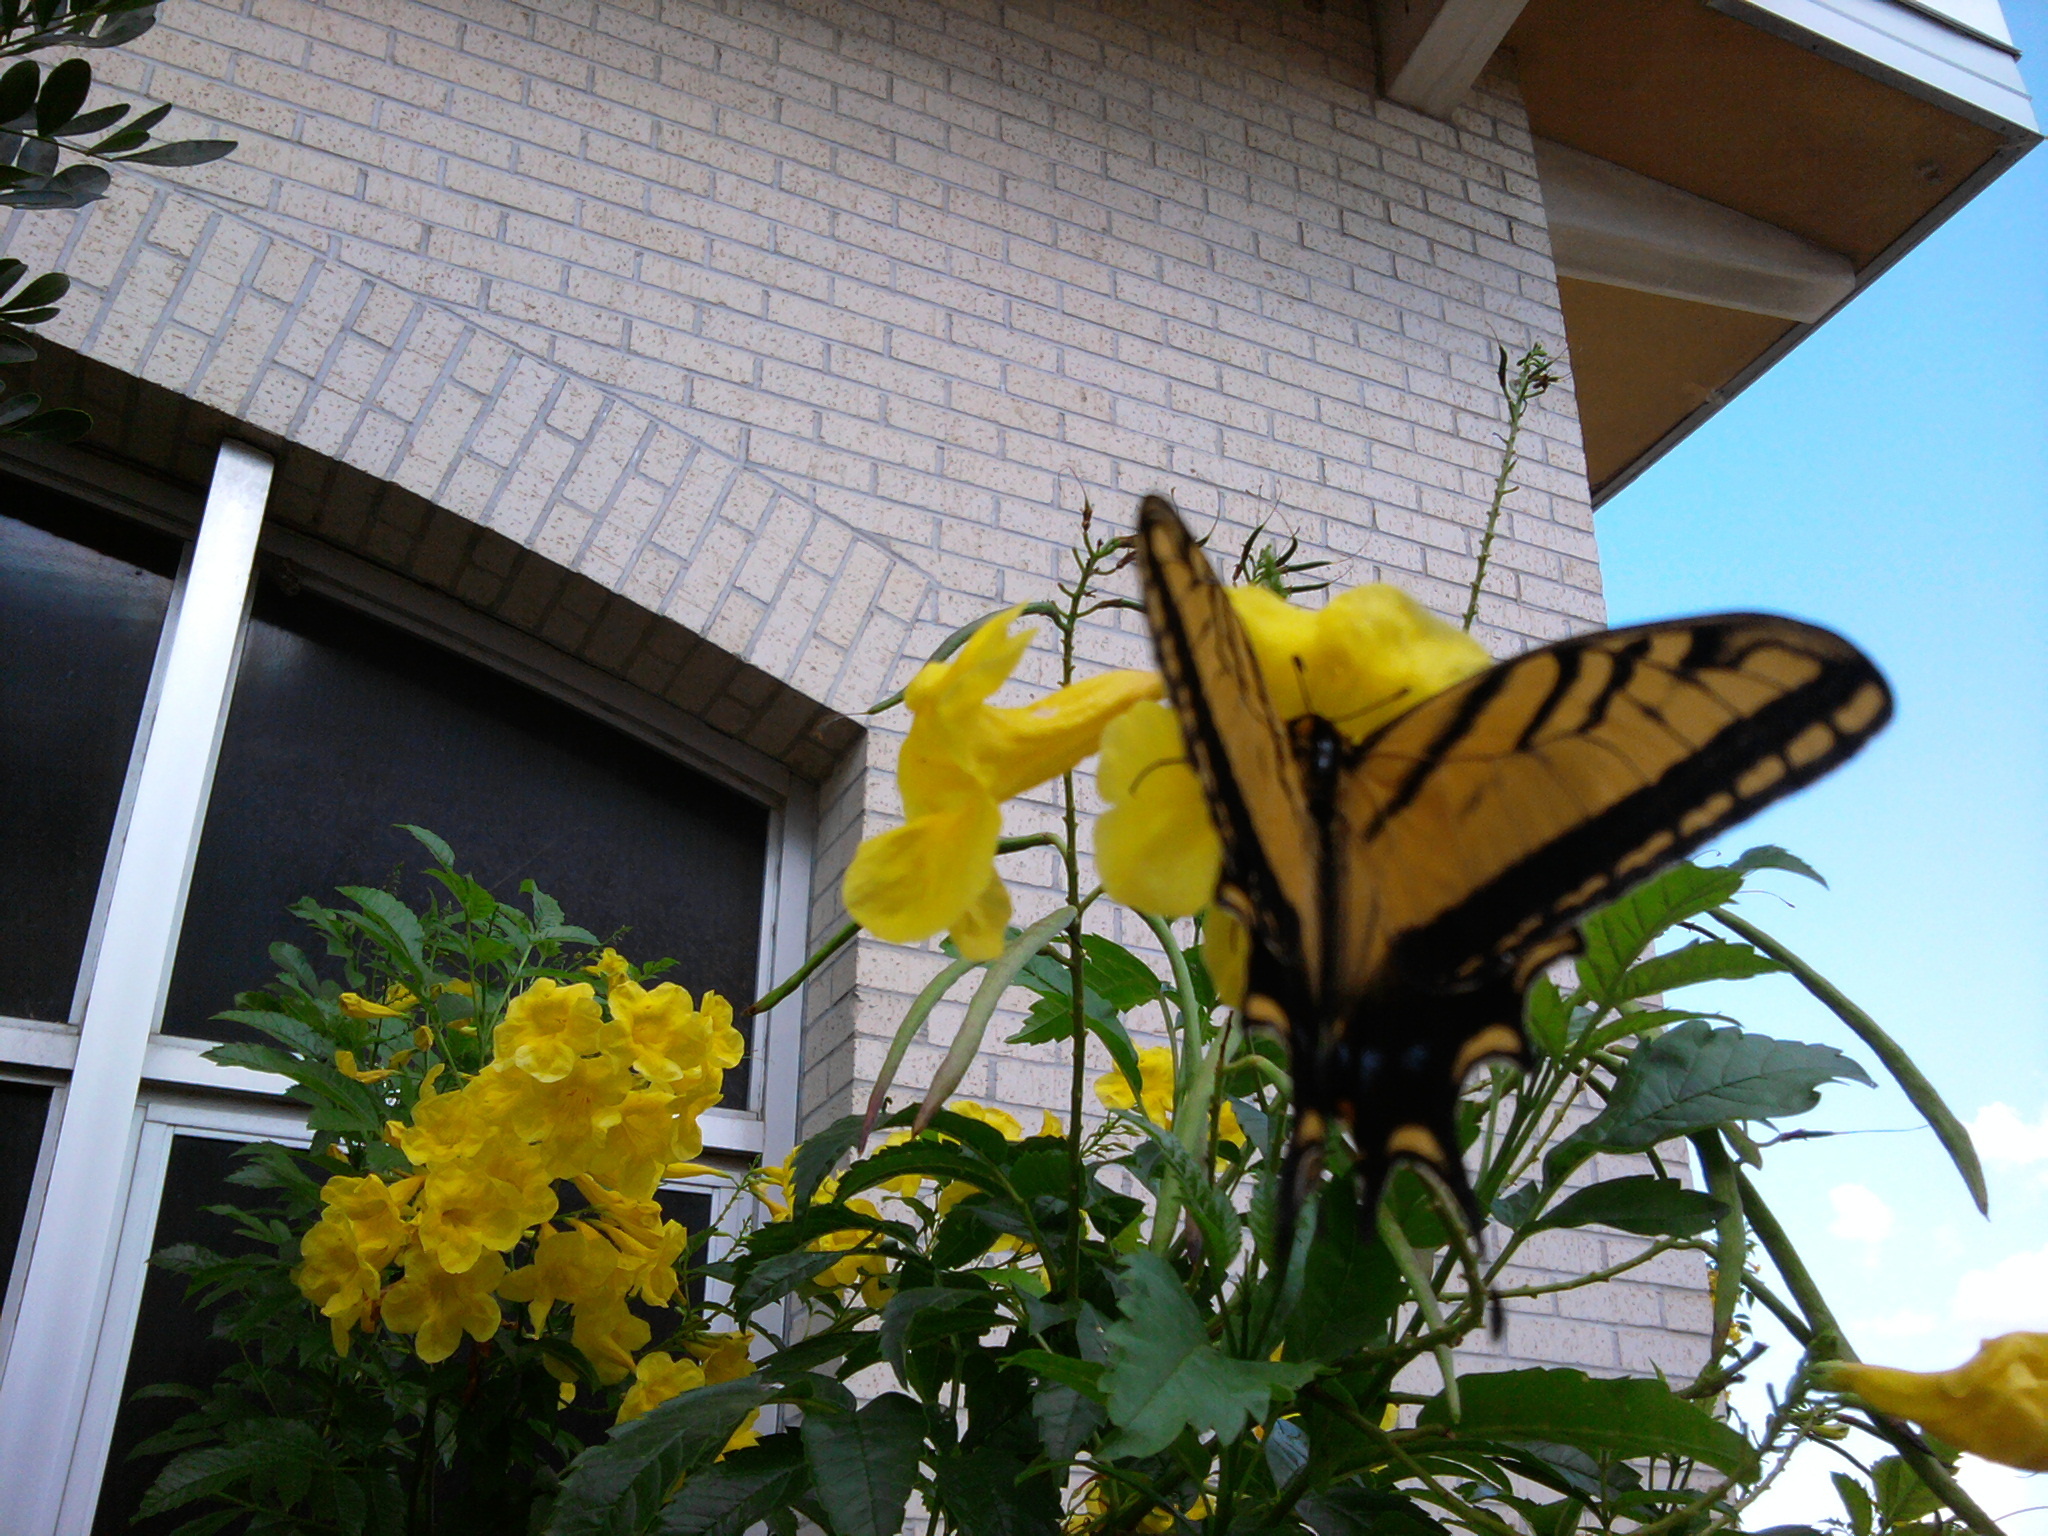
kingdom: Animalia
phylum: Arthropoda
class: Insecta
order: Lepidoptera
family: Papilionidae
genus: Papilio
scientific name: Papilio glaucus
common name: Tiger swallowtail
